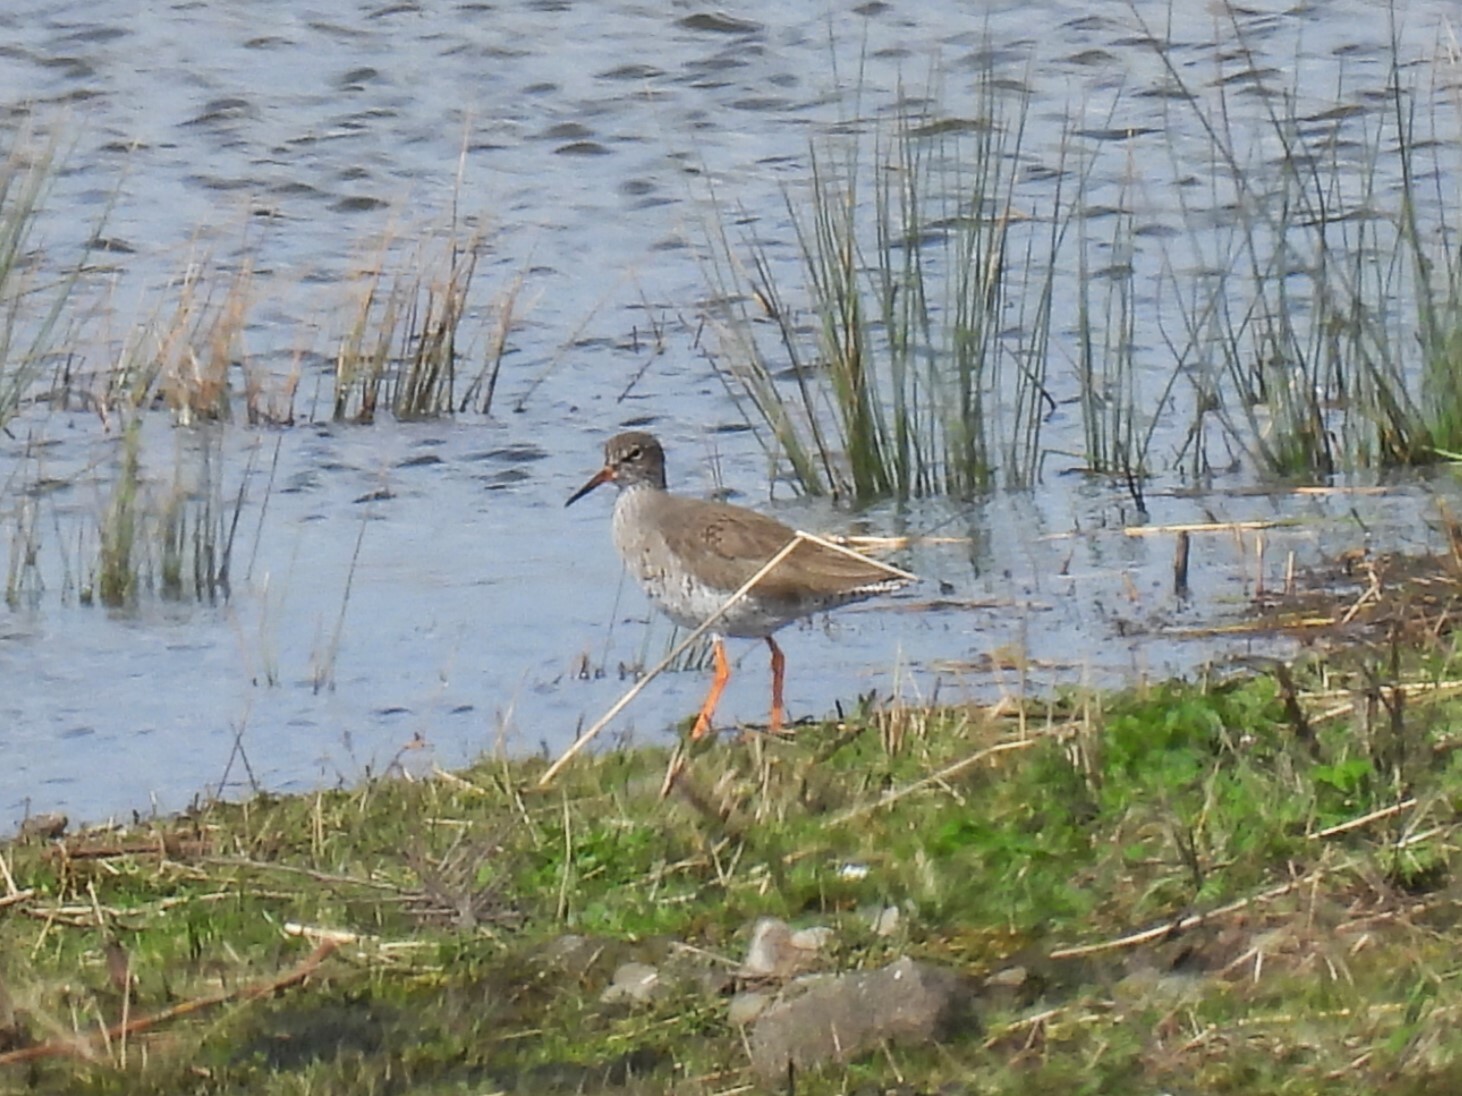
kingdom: Animalia
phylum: Chordata
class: Aves
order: Charadriiformes
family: Scolopacidae
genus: Tringa
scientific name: Tringa totanus
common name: Common redshank
